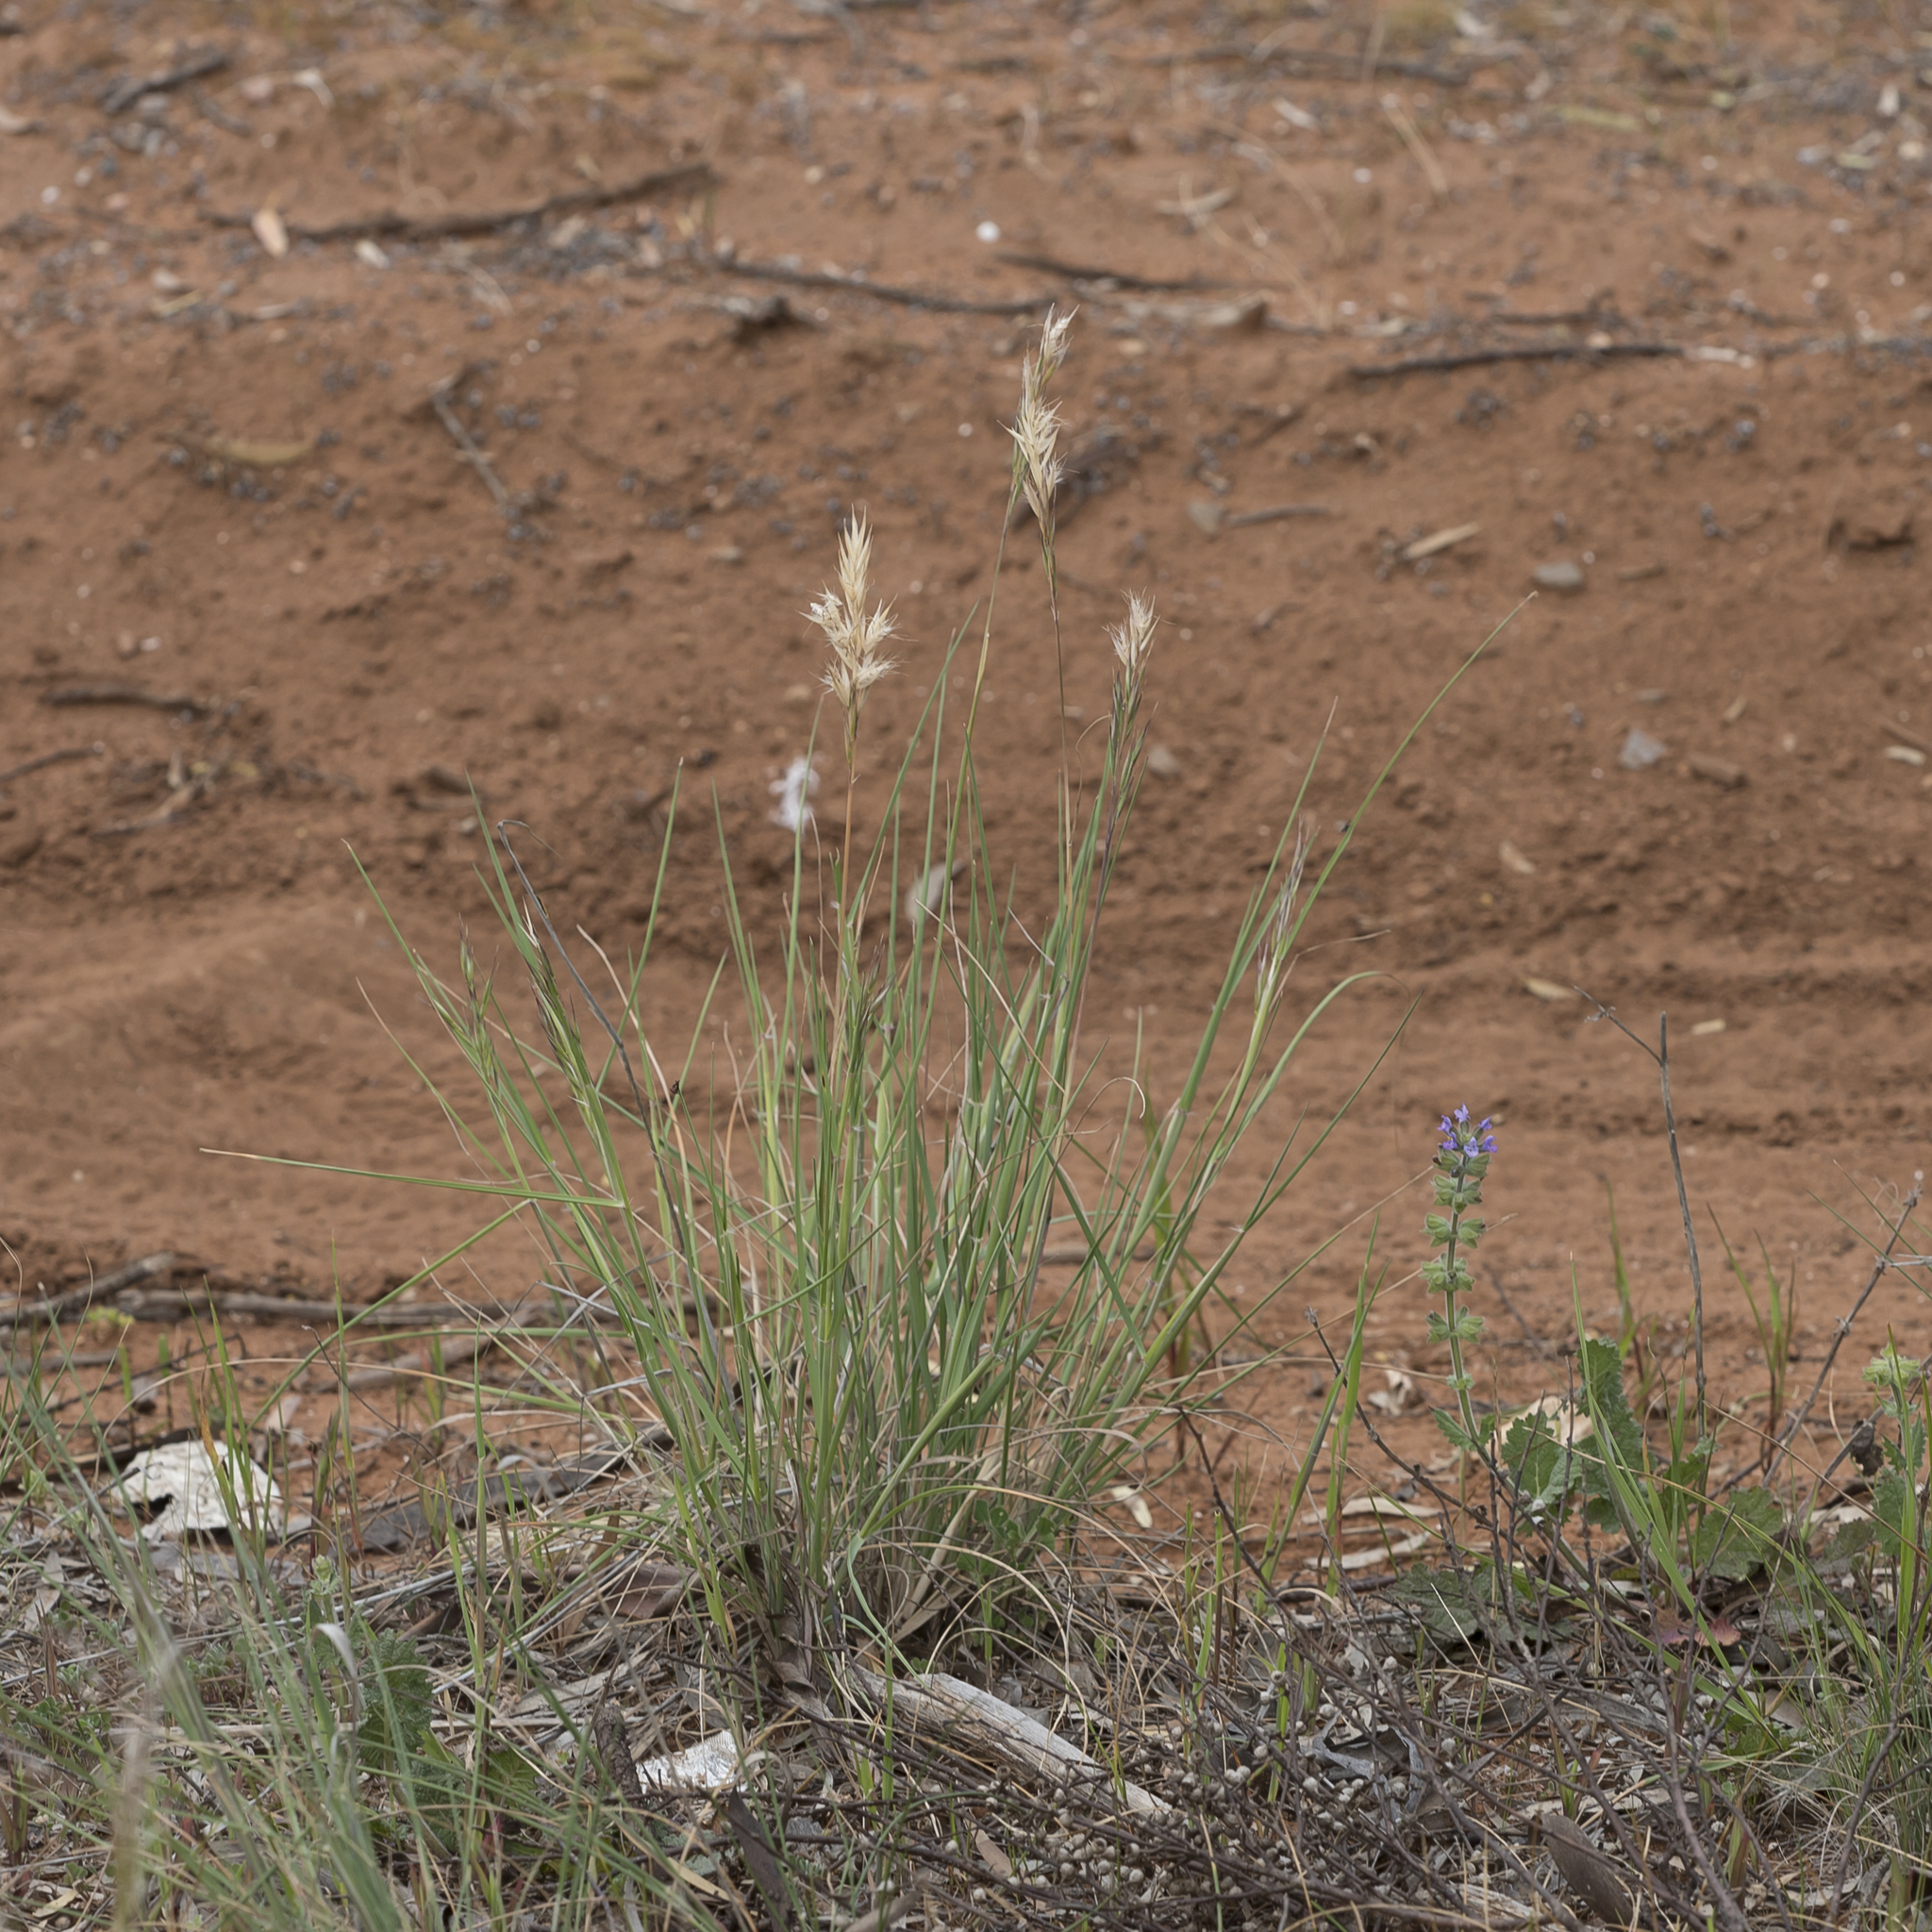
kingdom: Plantae
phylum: Tracheophyta
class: Liliopsida
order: Poales
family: Poaceae
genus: Rytidosperma
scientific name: Rytidosperma caespitosum
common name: Tufted wallaby grass
